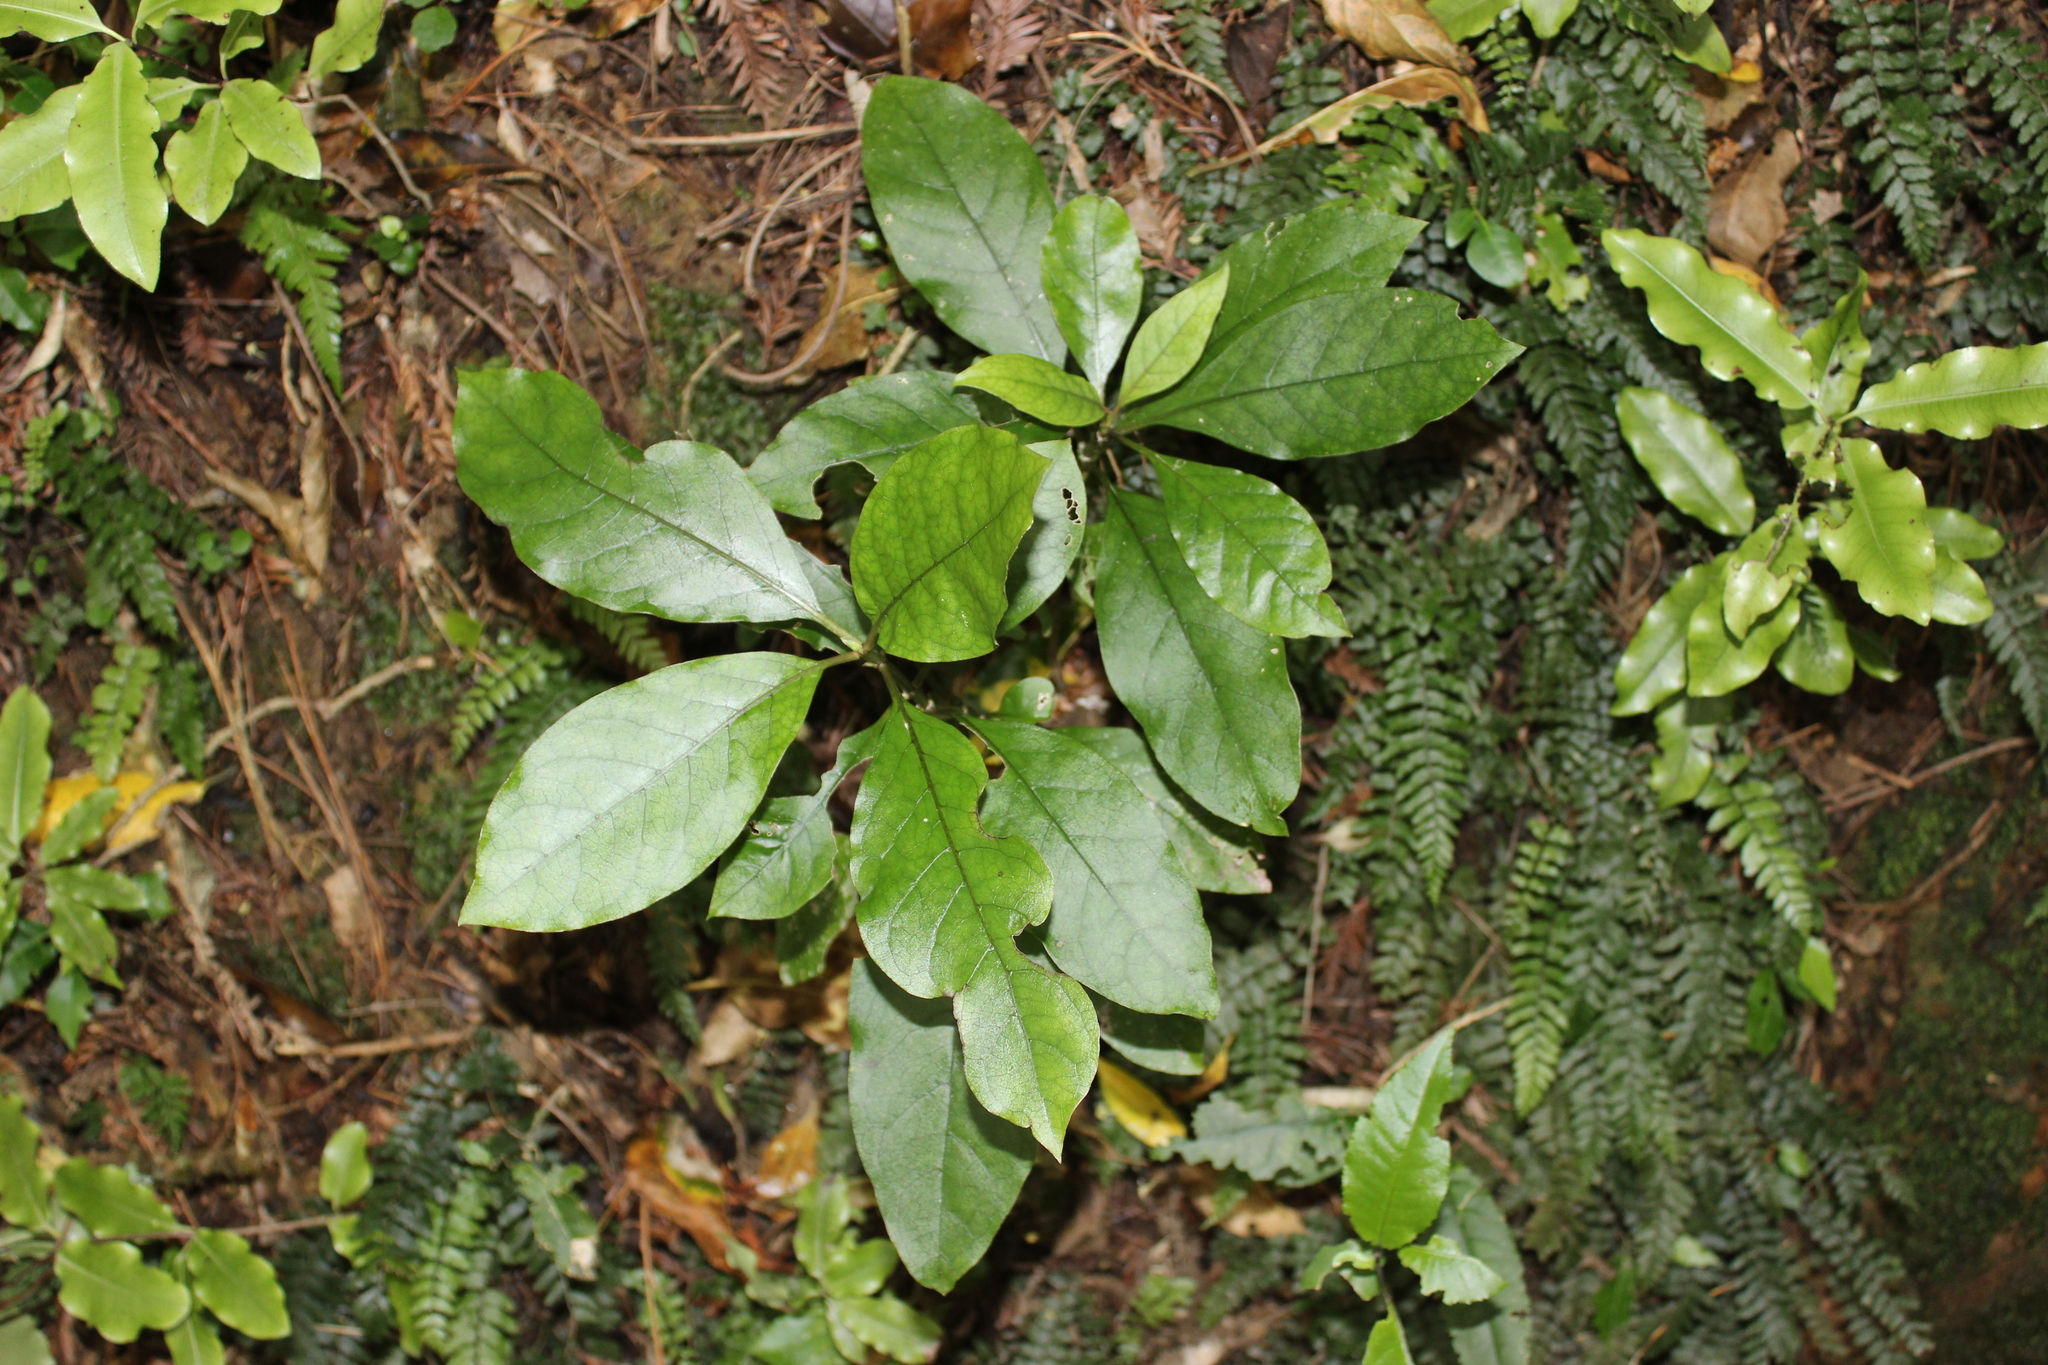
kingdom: Plantae
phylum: Tracheophyta
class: Magnoliopsida
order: Gentianales
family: Rubiaceae
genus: Coprosma
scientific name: Coprosma autumnalis
